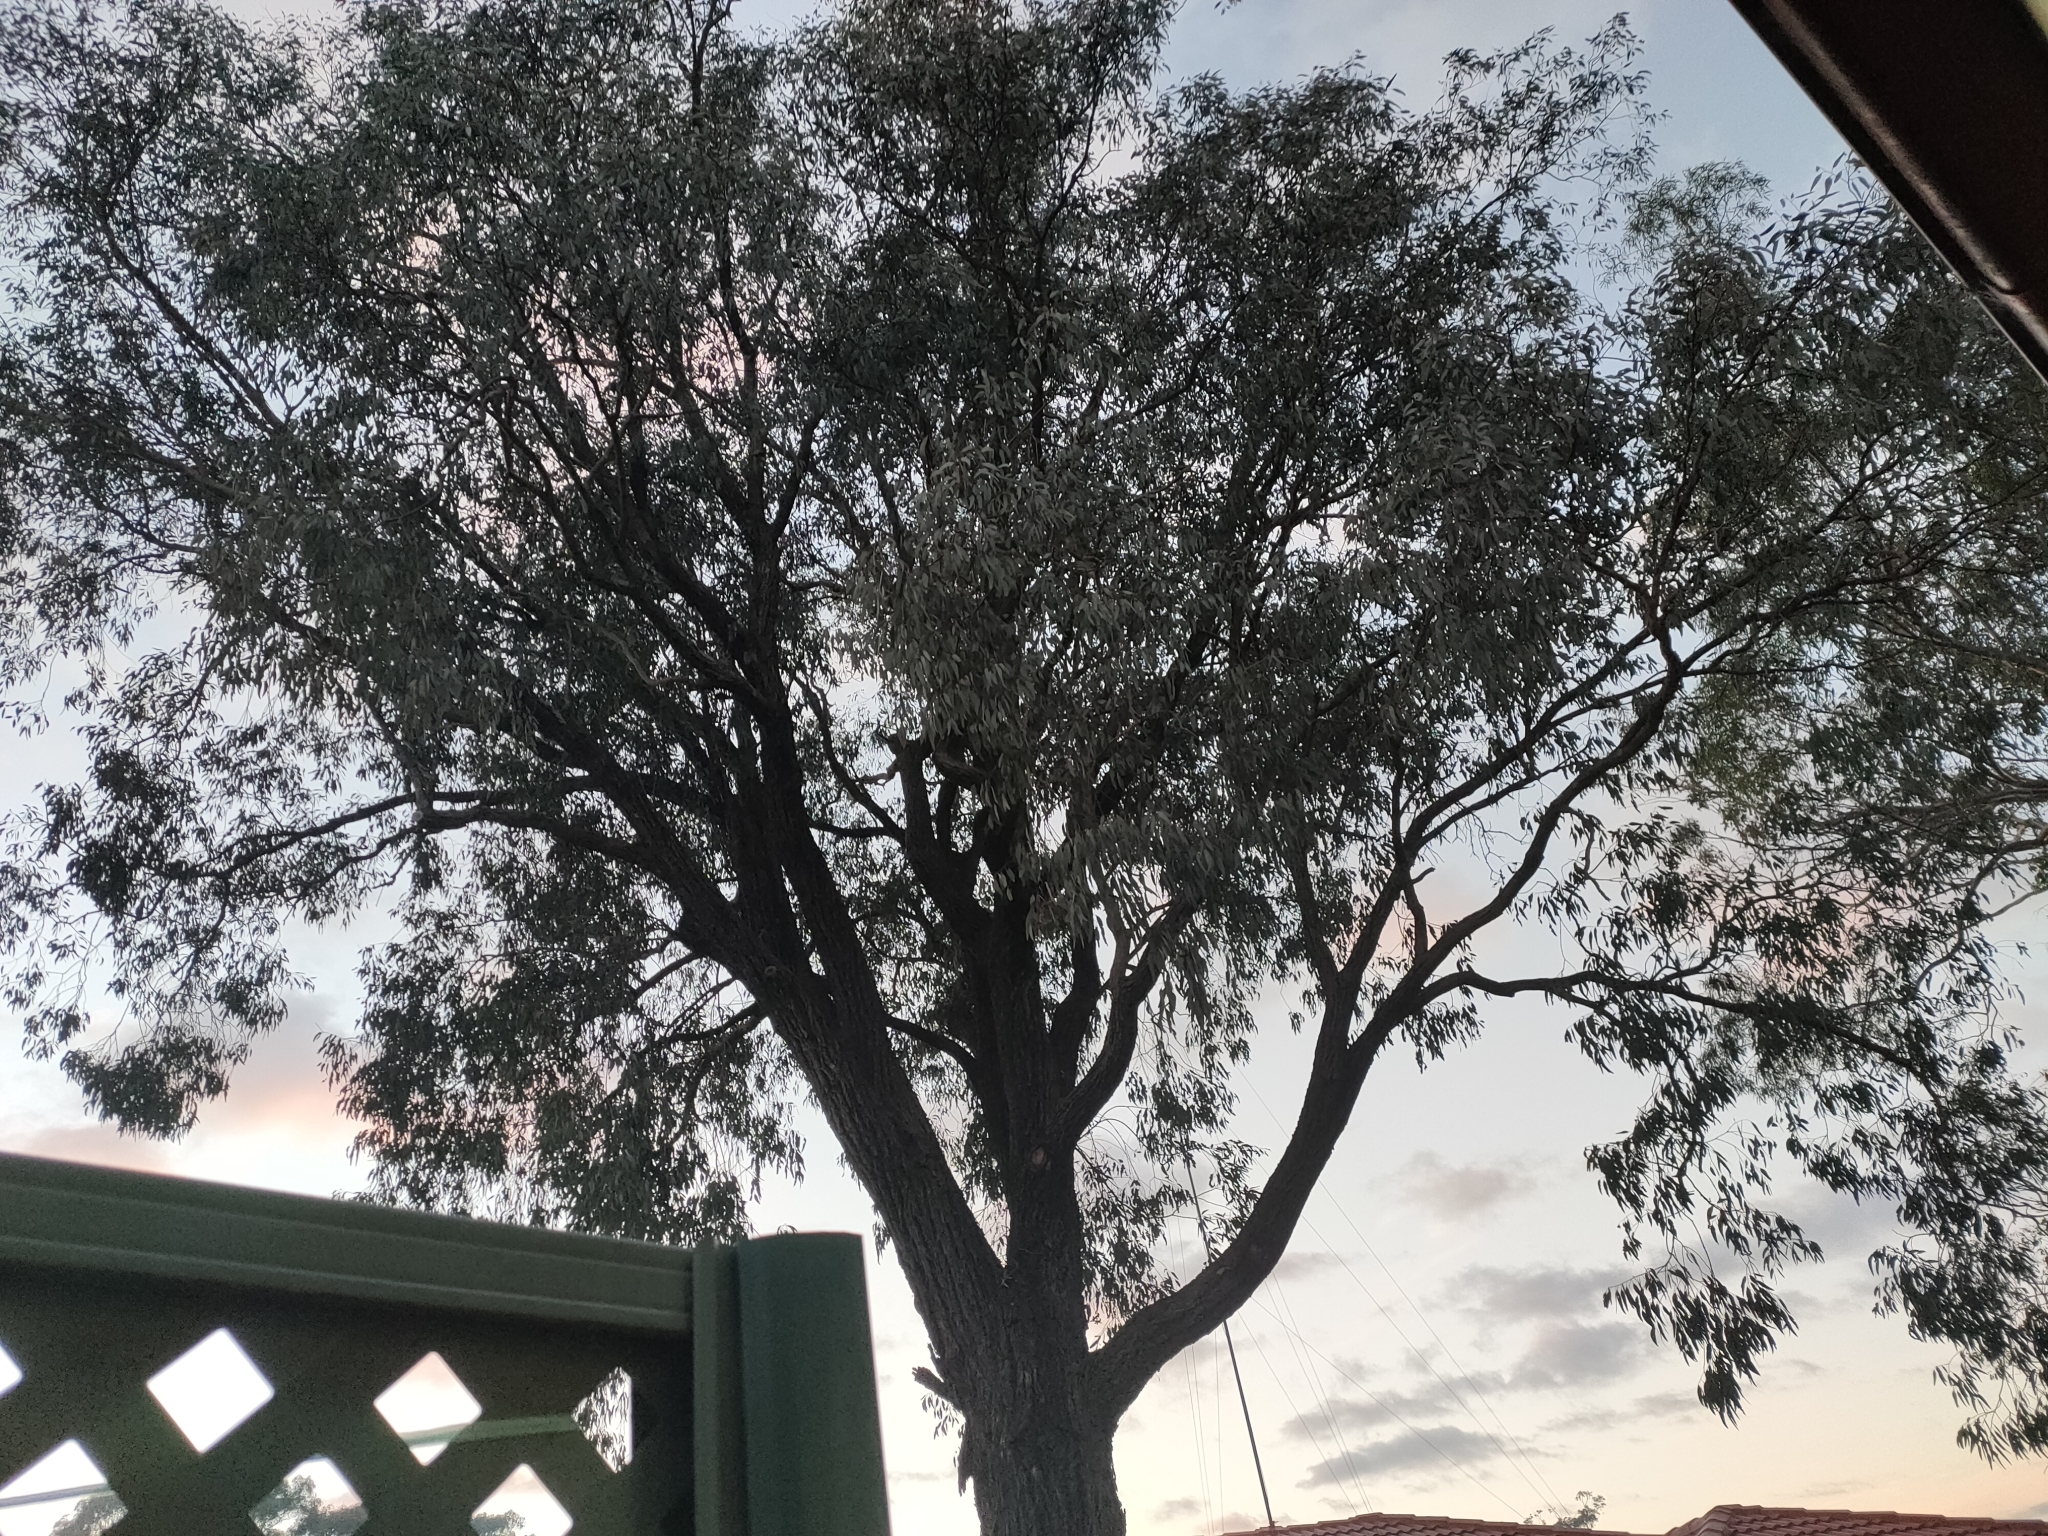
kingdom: Animalia
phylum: Chordata
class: Aves
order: Passeriformes
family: Cracticidae
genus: Cracticus
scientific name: Cracticus torquatus
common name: Grey butcherbird
